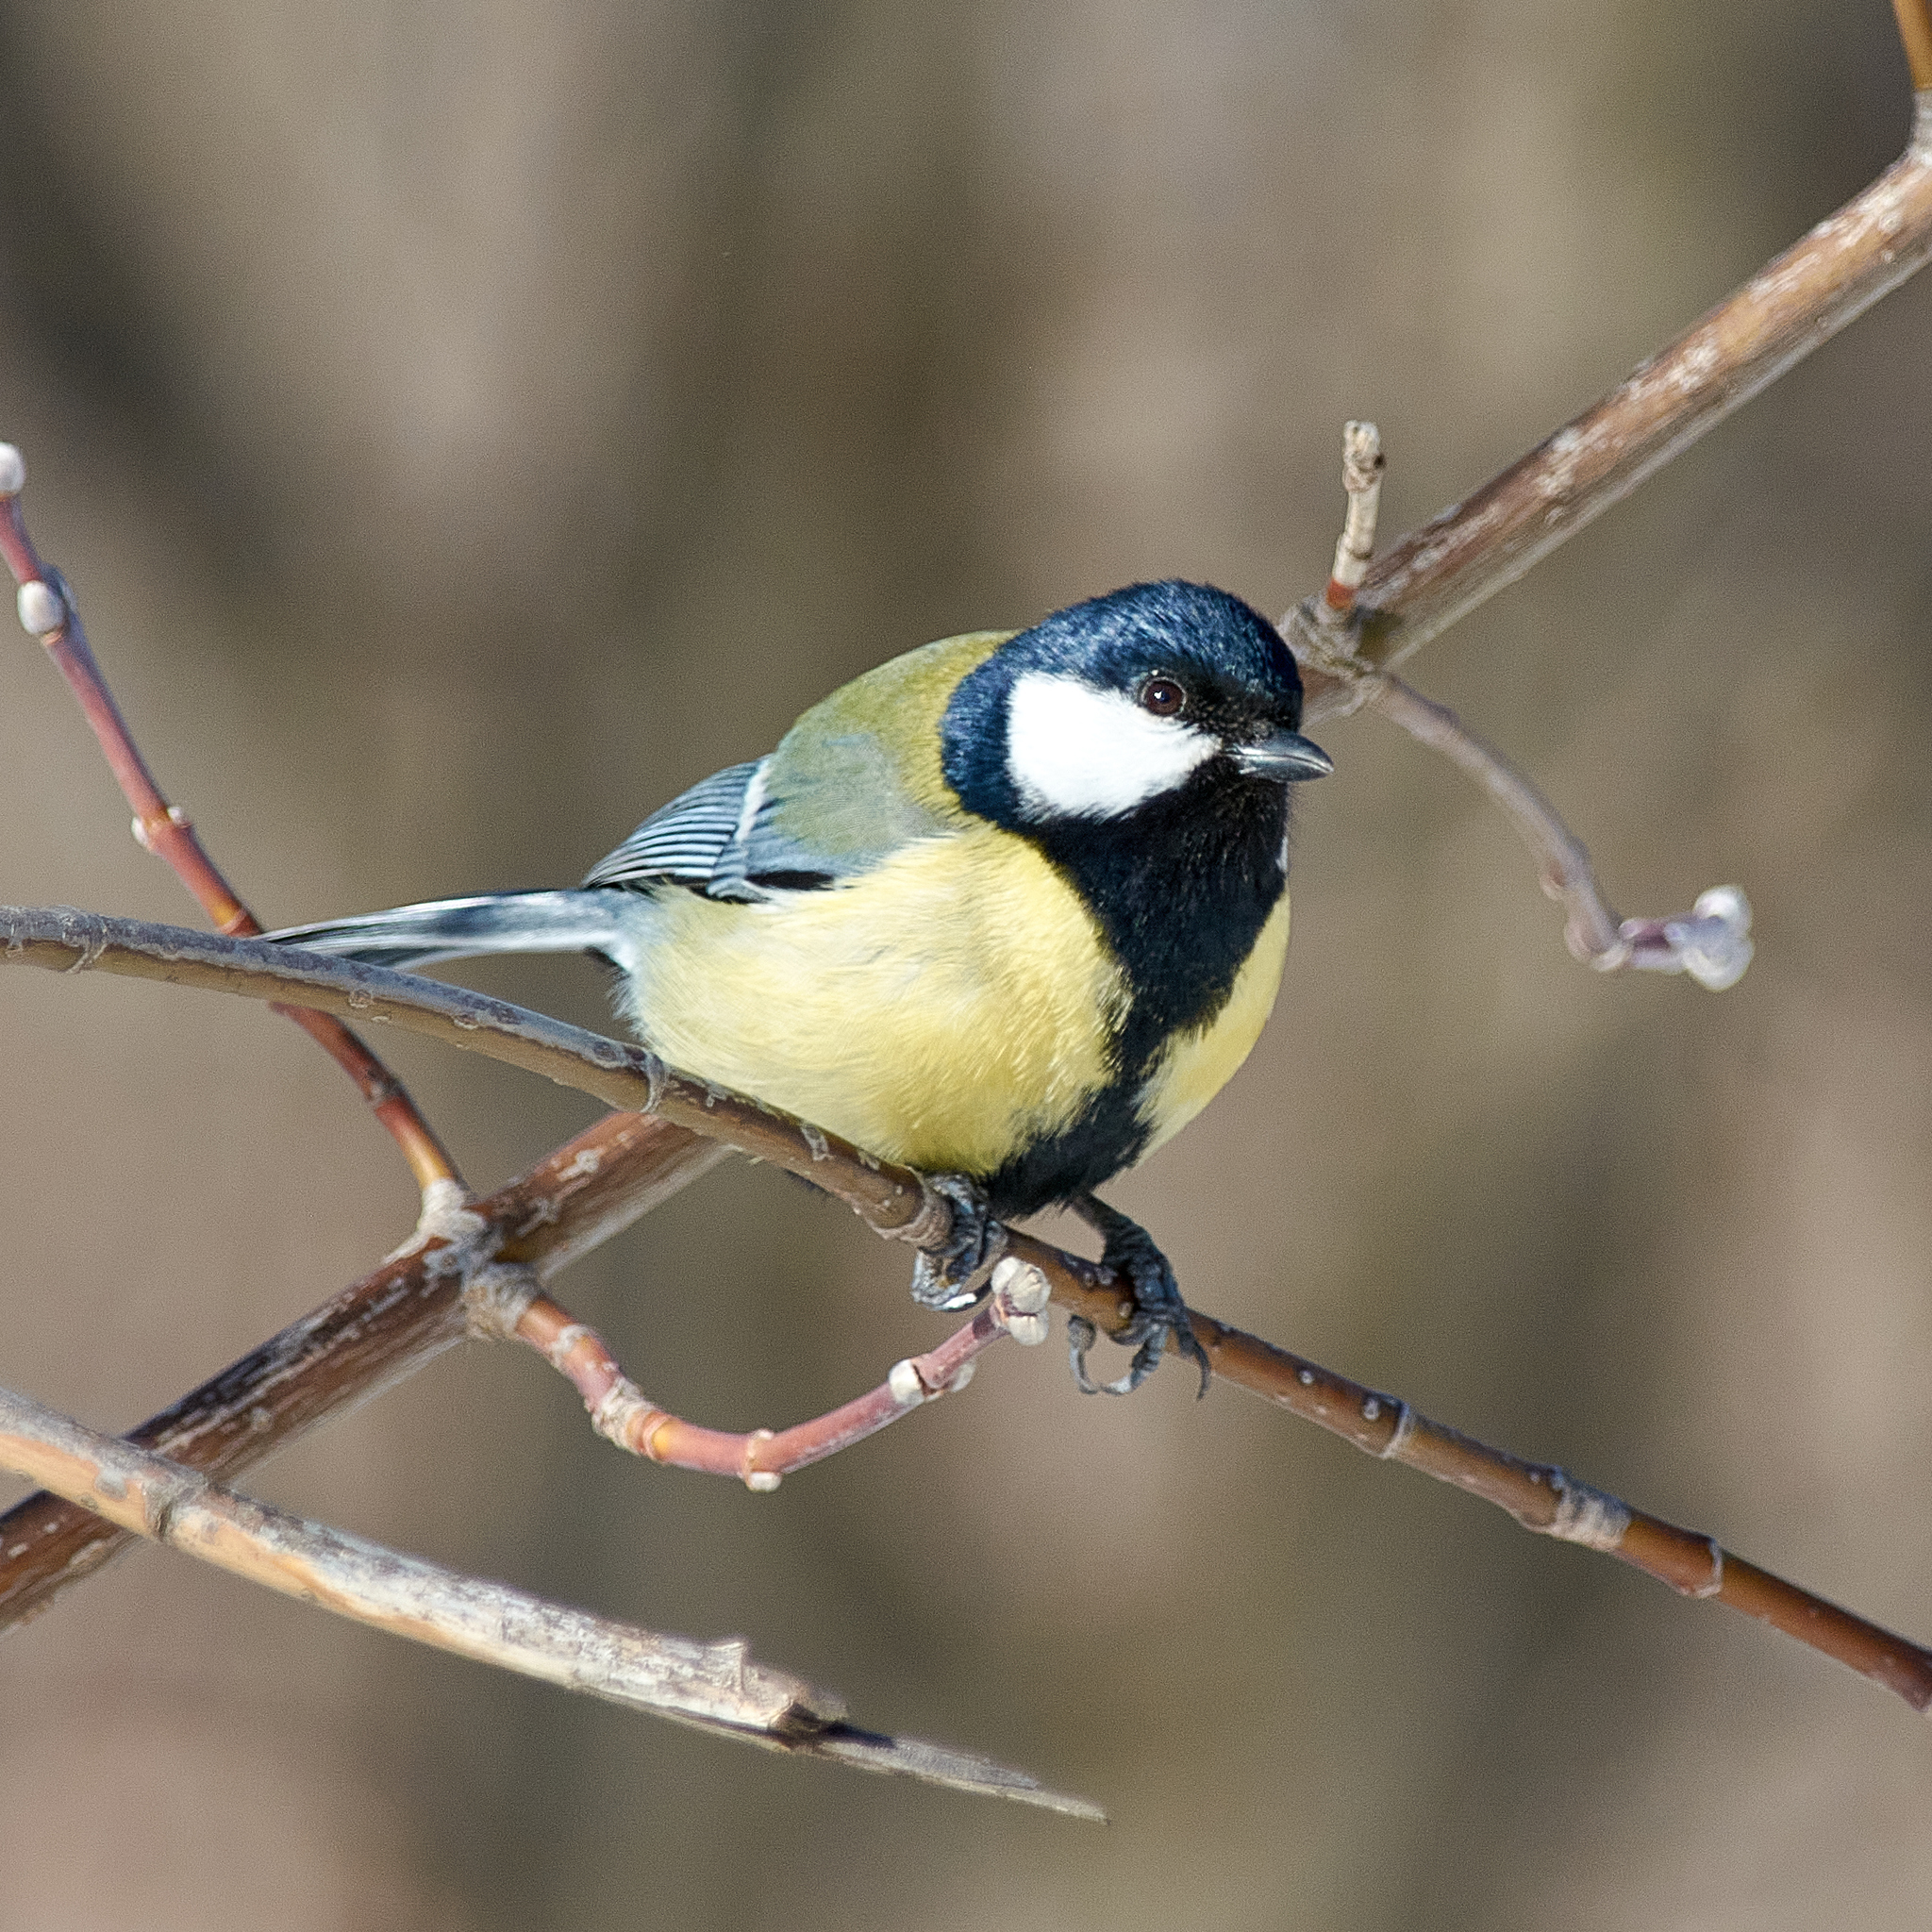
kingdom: Animalia
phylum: Chordata
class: Aves
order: Passeriformes
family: Paridae
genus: Parus
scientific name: Parus major
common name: Great tit
